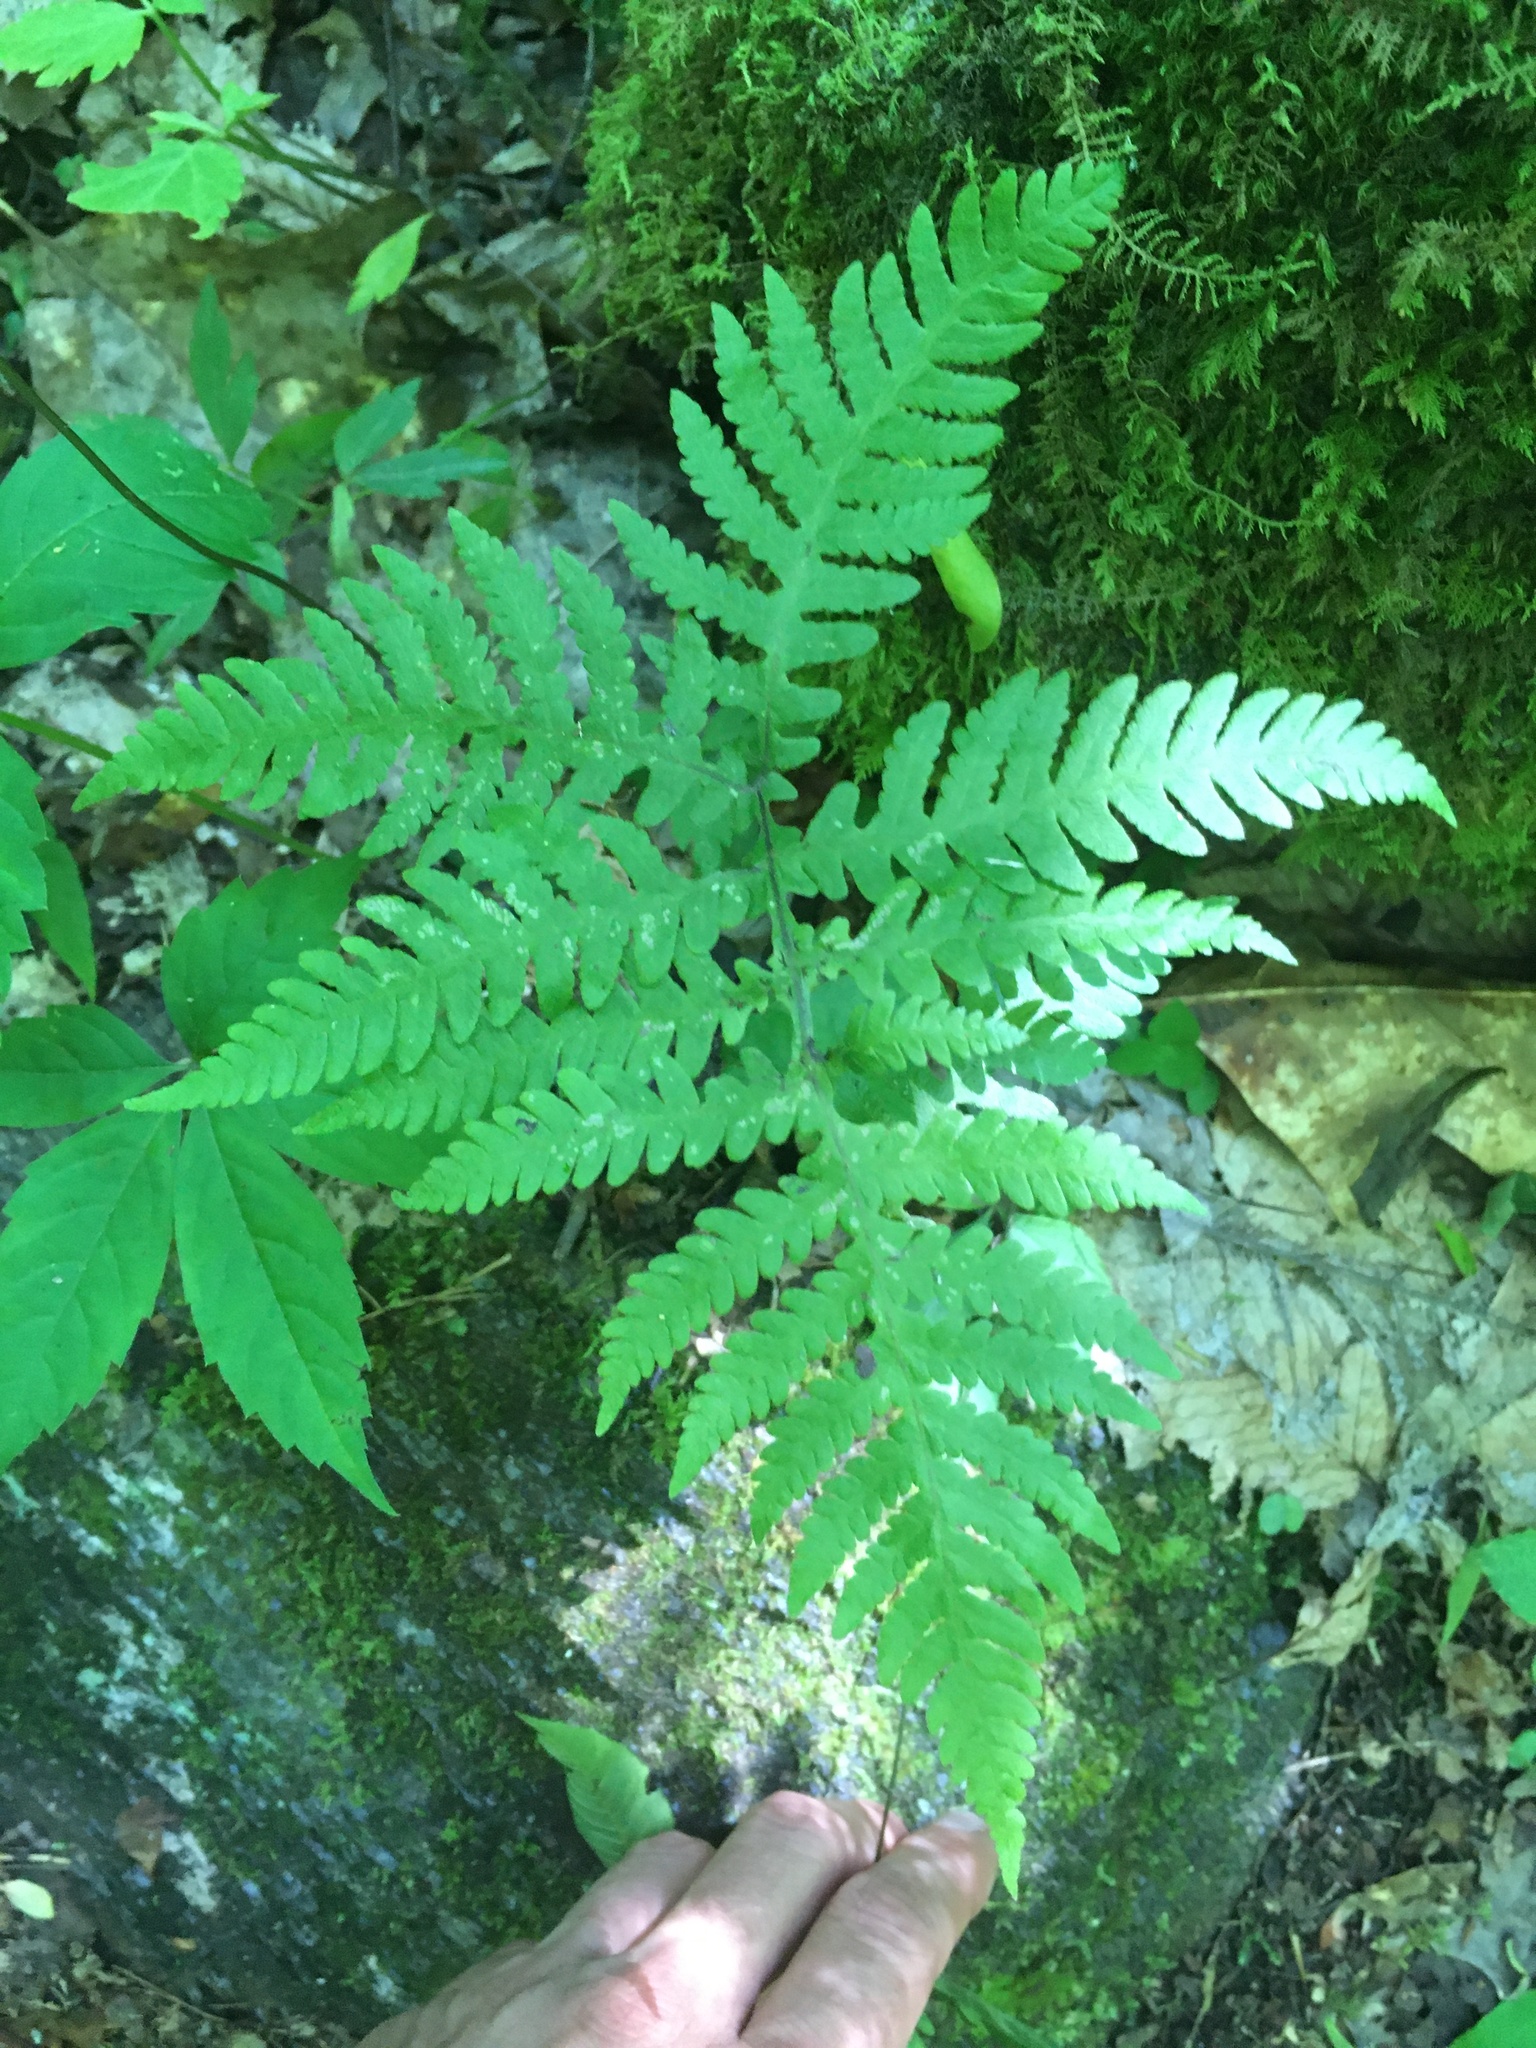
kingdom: Plantae
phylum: Tracheophyta
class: Polypodiopsida
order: Polypodiales
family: Thelypteridaceae
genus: Phegopteris
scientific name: Phegopteris hexagonoptera
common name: Broad beech fern
